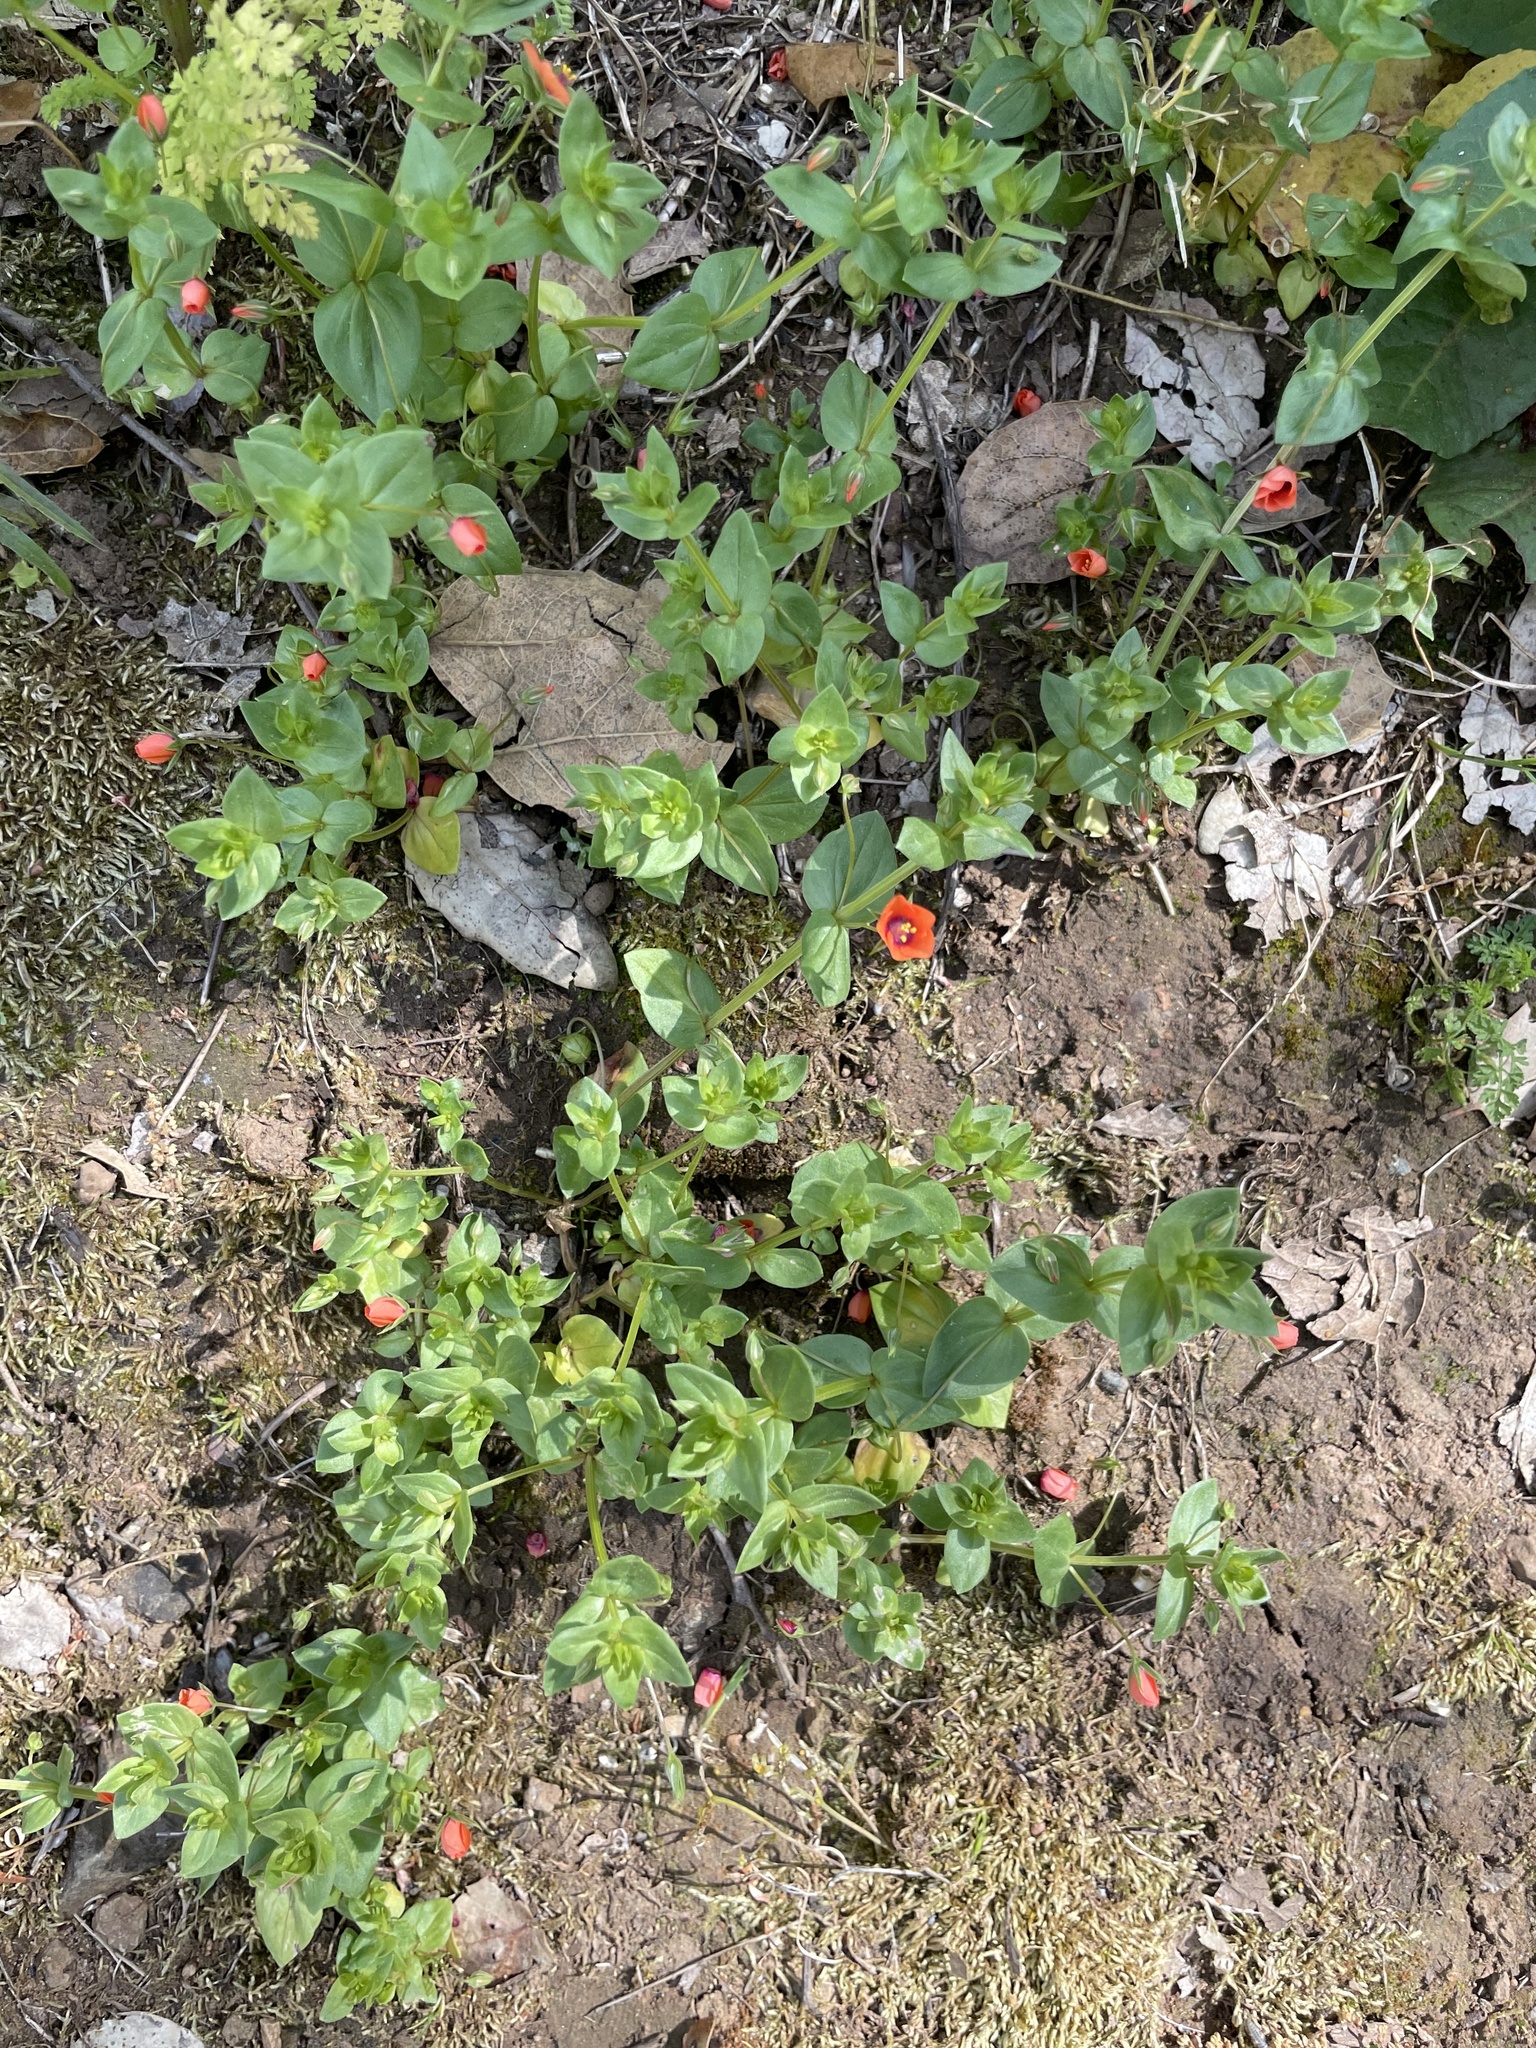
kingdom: Plantae
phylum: Tracheophyta
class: Magnoliopsida
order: Ericales
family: Primulaceae
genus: Lysimachia
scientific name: Lysimachia arvensis
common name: Scarlet pimpernel
